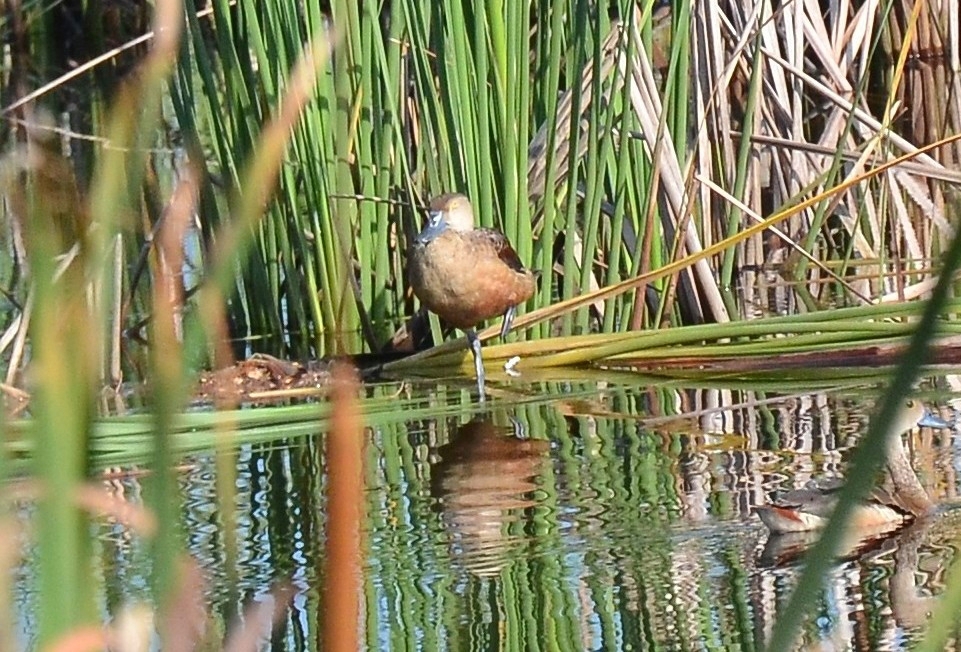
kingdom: Animalia
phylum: Chordata
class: Aves
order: Anseriformes
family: Anatidae
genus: Dendrocygna
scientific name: Dendrocygna javanica
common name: Lesser whistling-duck
